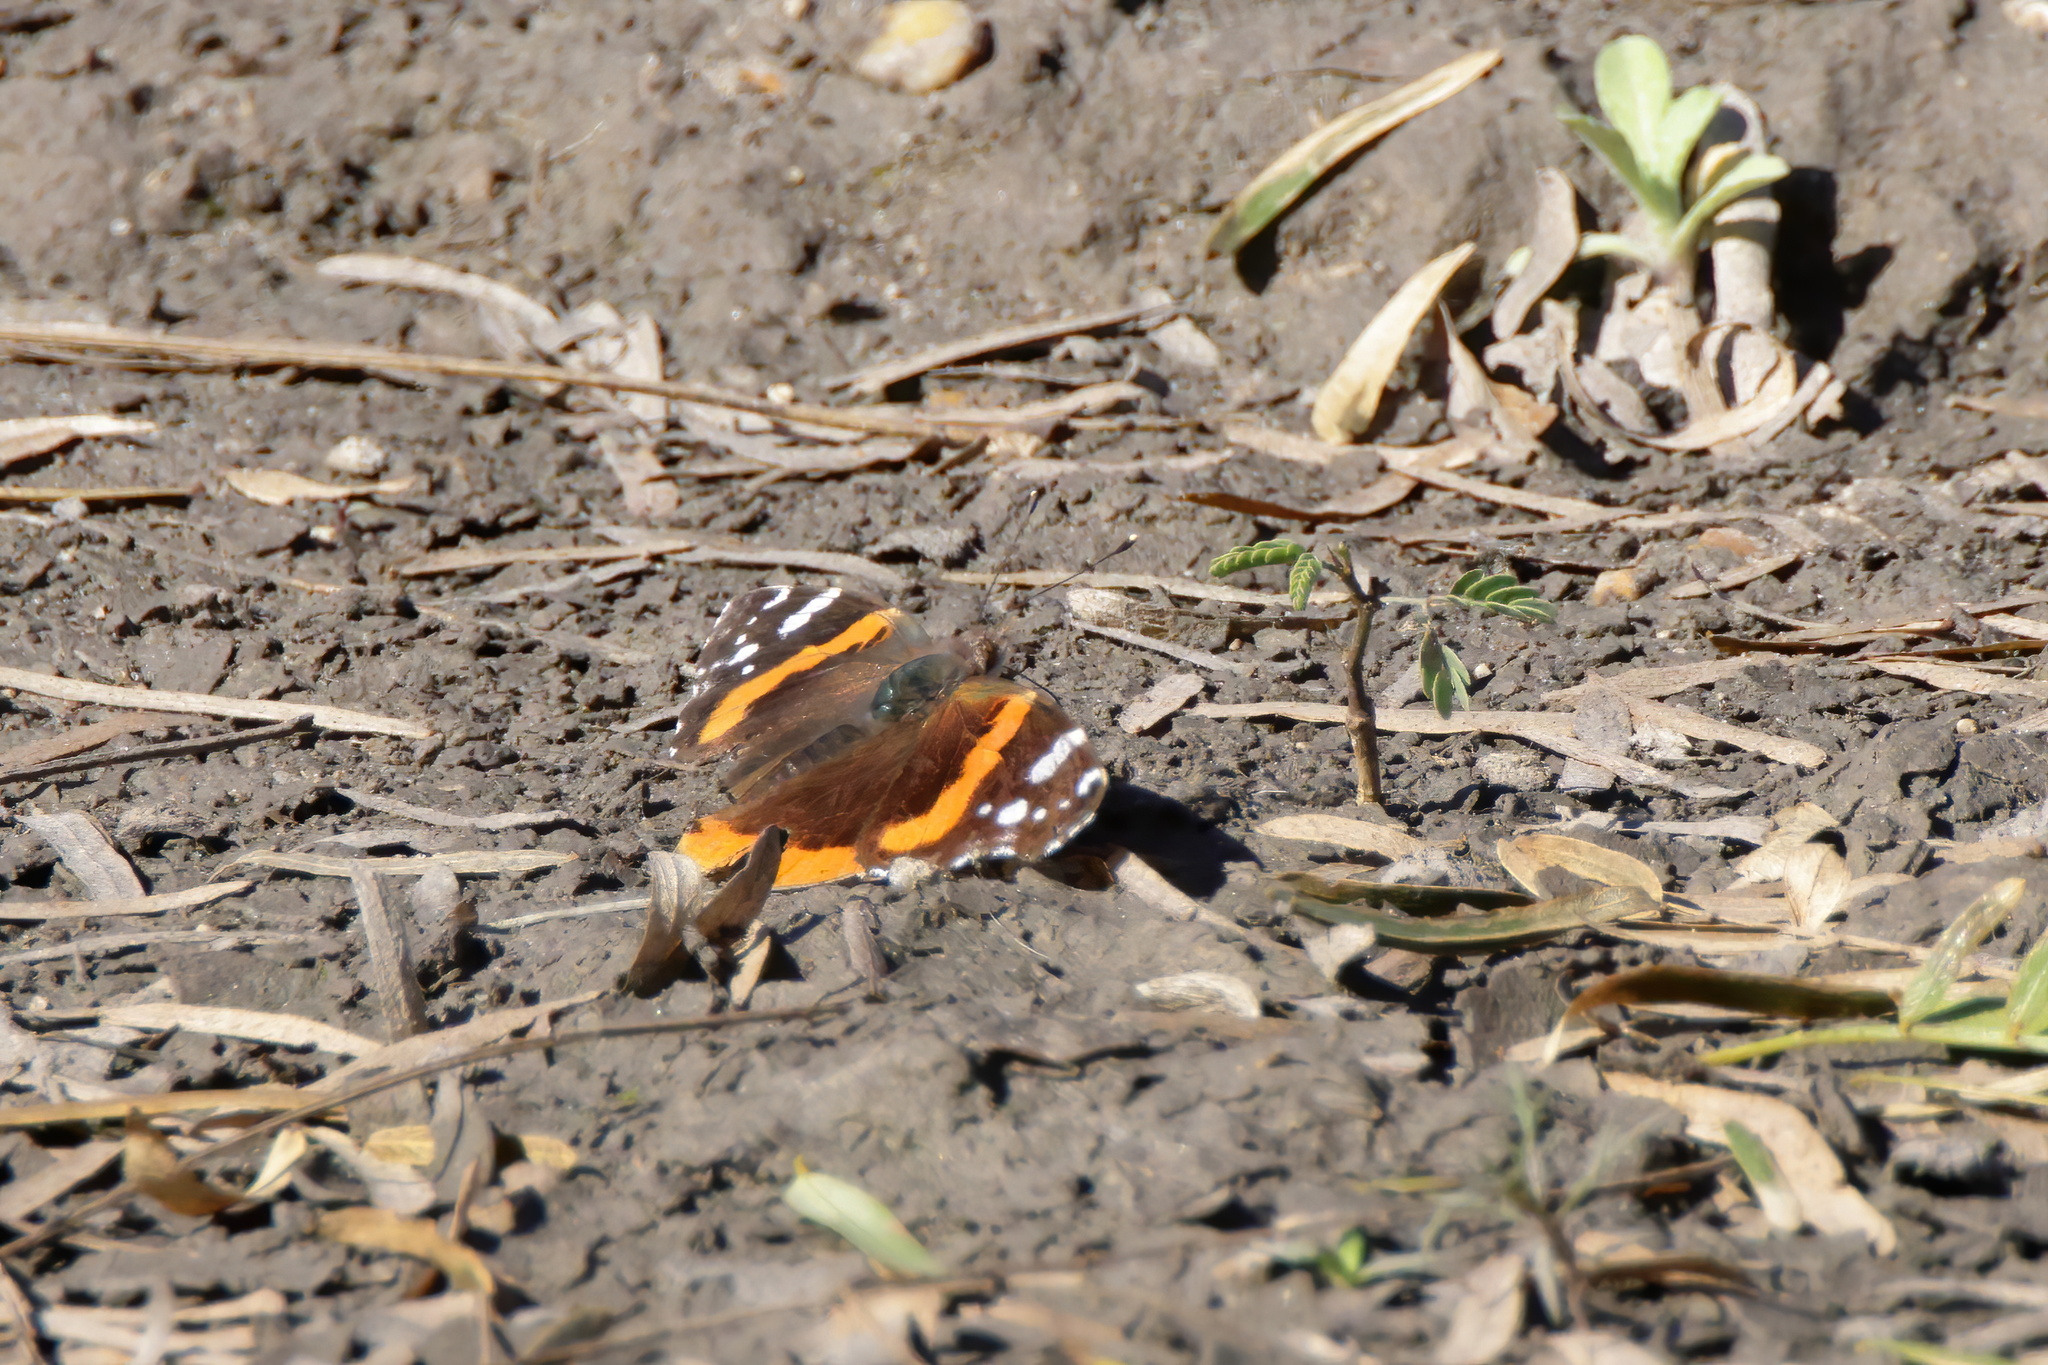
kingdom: Animalia
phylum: Arthropoda
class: Insecta
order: Lepidoptera
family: Nymphalidae
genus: Vanessa
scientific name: Vanessa atalanta
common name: Red admiral
